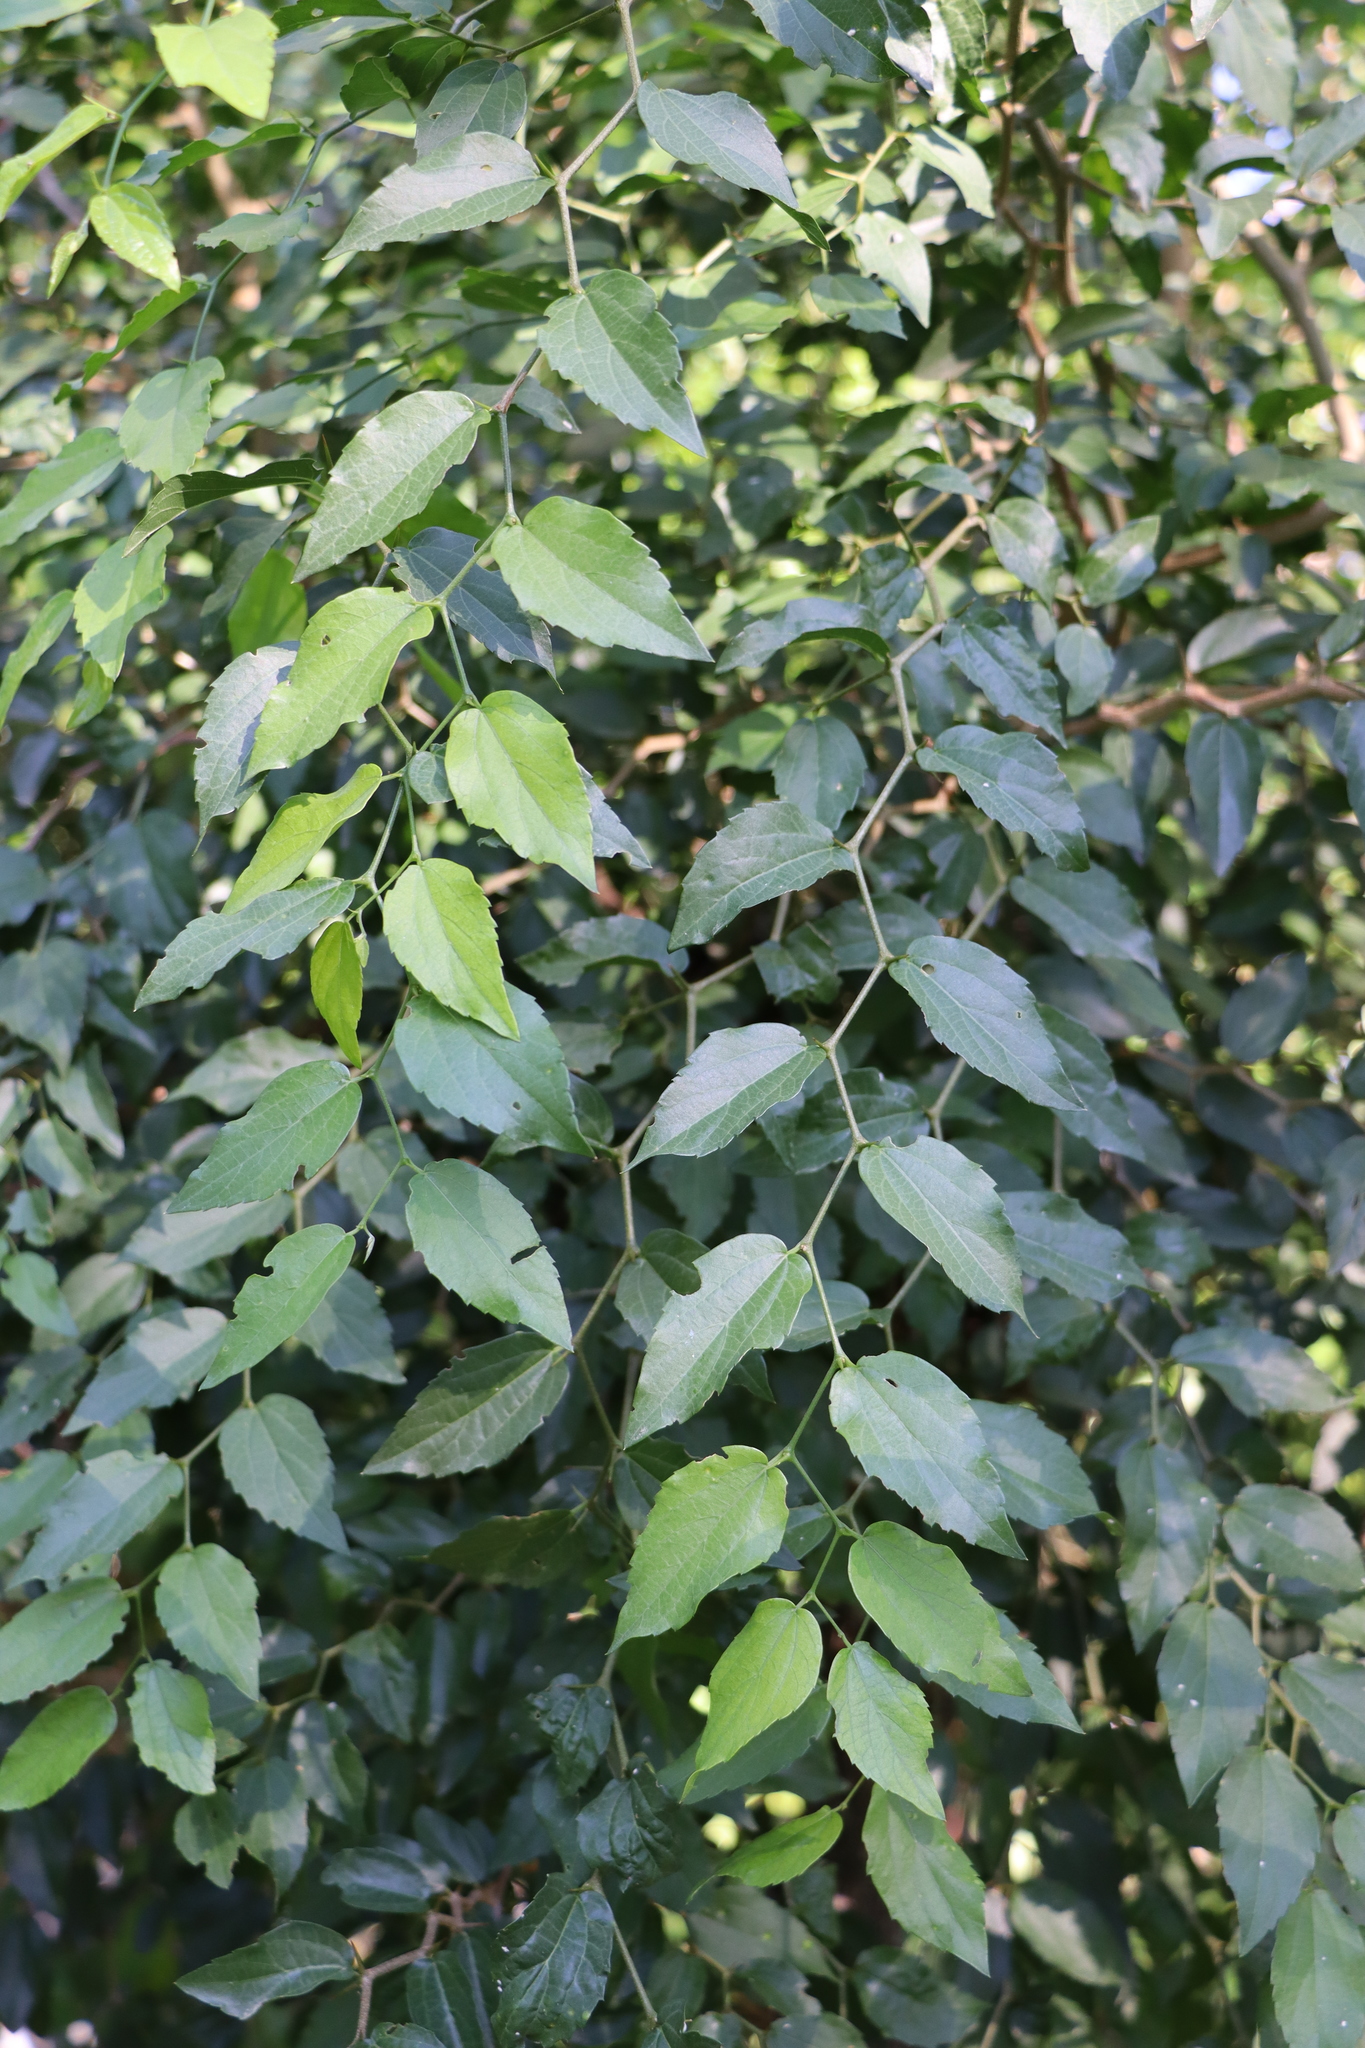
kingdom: Plantae
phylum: Tracheophyta
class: Magnoliopsida
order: Rosales
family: Cannabaceae
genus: Celtis
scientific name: Celtis tala
